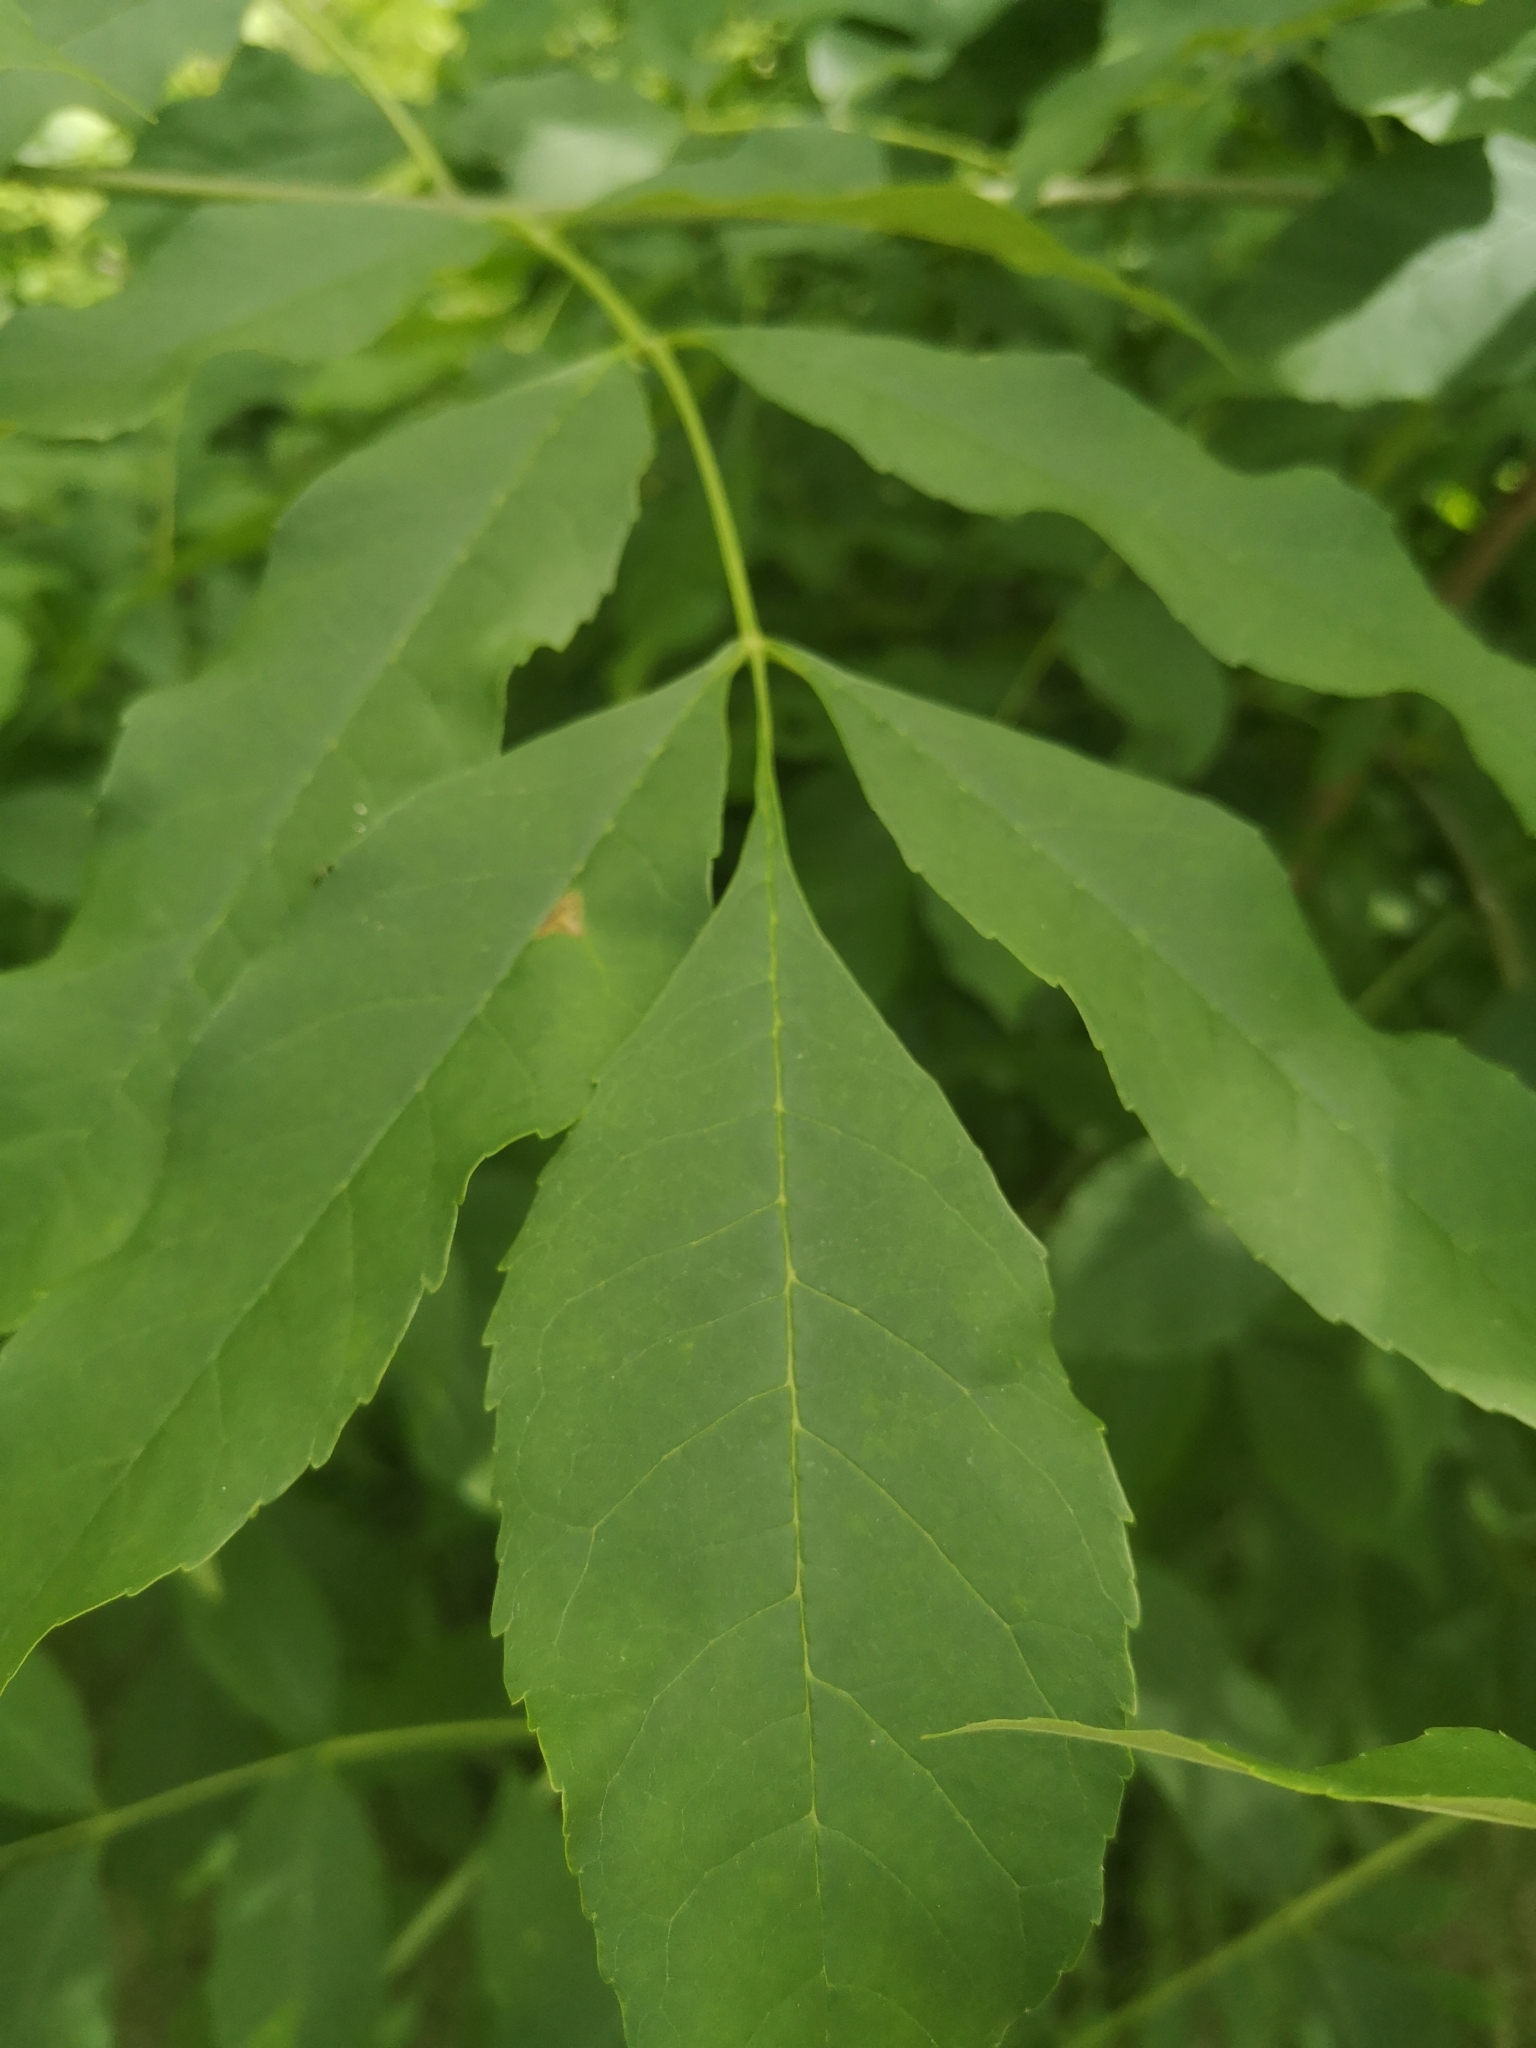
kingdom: Plantae
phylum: Tracheophyta
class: Magnoliopsida
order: Lamiales
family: Oleaceae
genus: Fraxinus
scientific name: Fraxinus pennsylvanica
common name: Green ash
